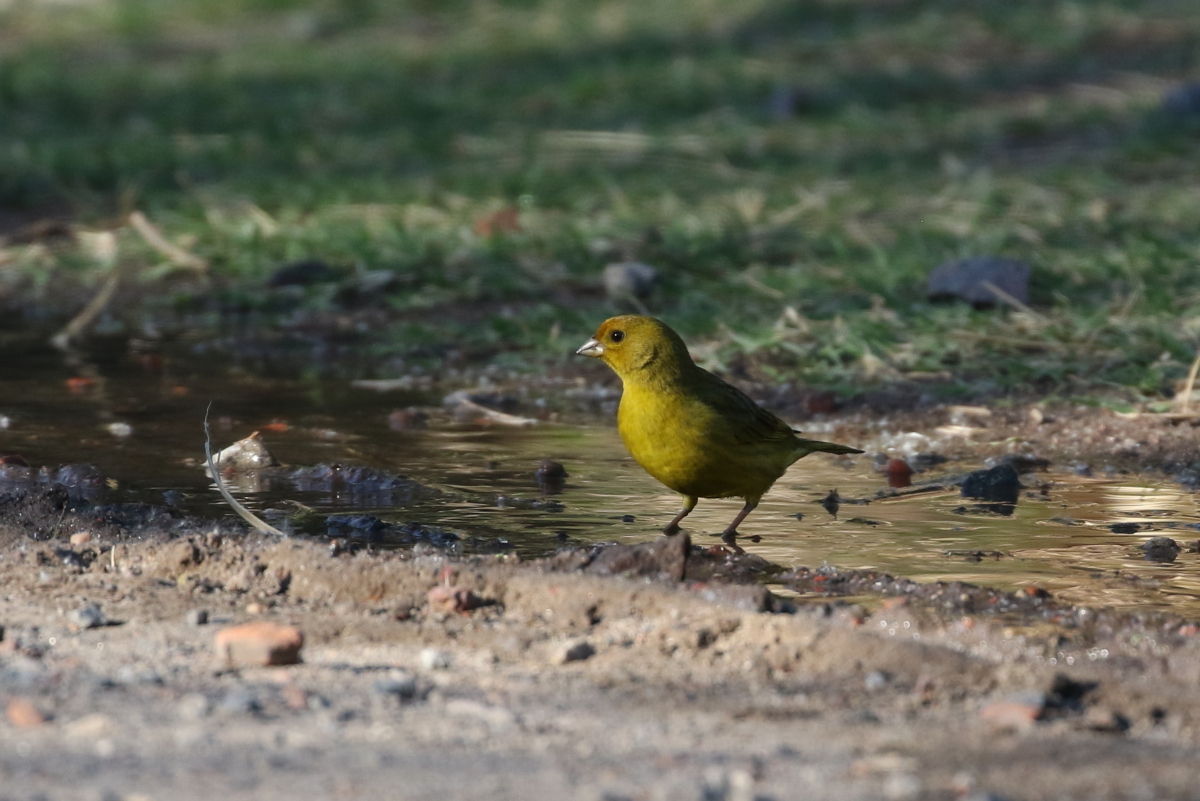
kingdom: Animalia
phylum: Chordata
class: Aves
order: Passeriformes
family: Thraupidae
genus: Sicalis
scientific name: Sicalis flaveola
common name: Saffron finch
